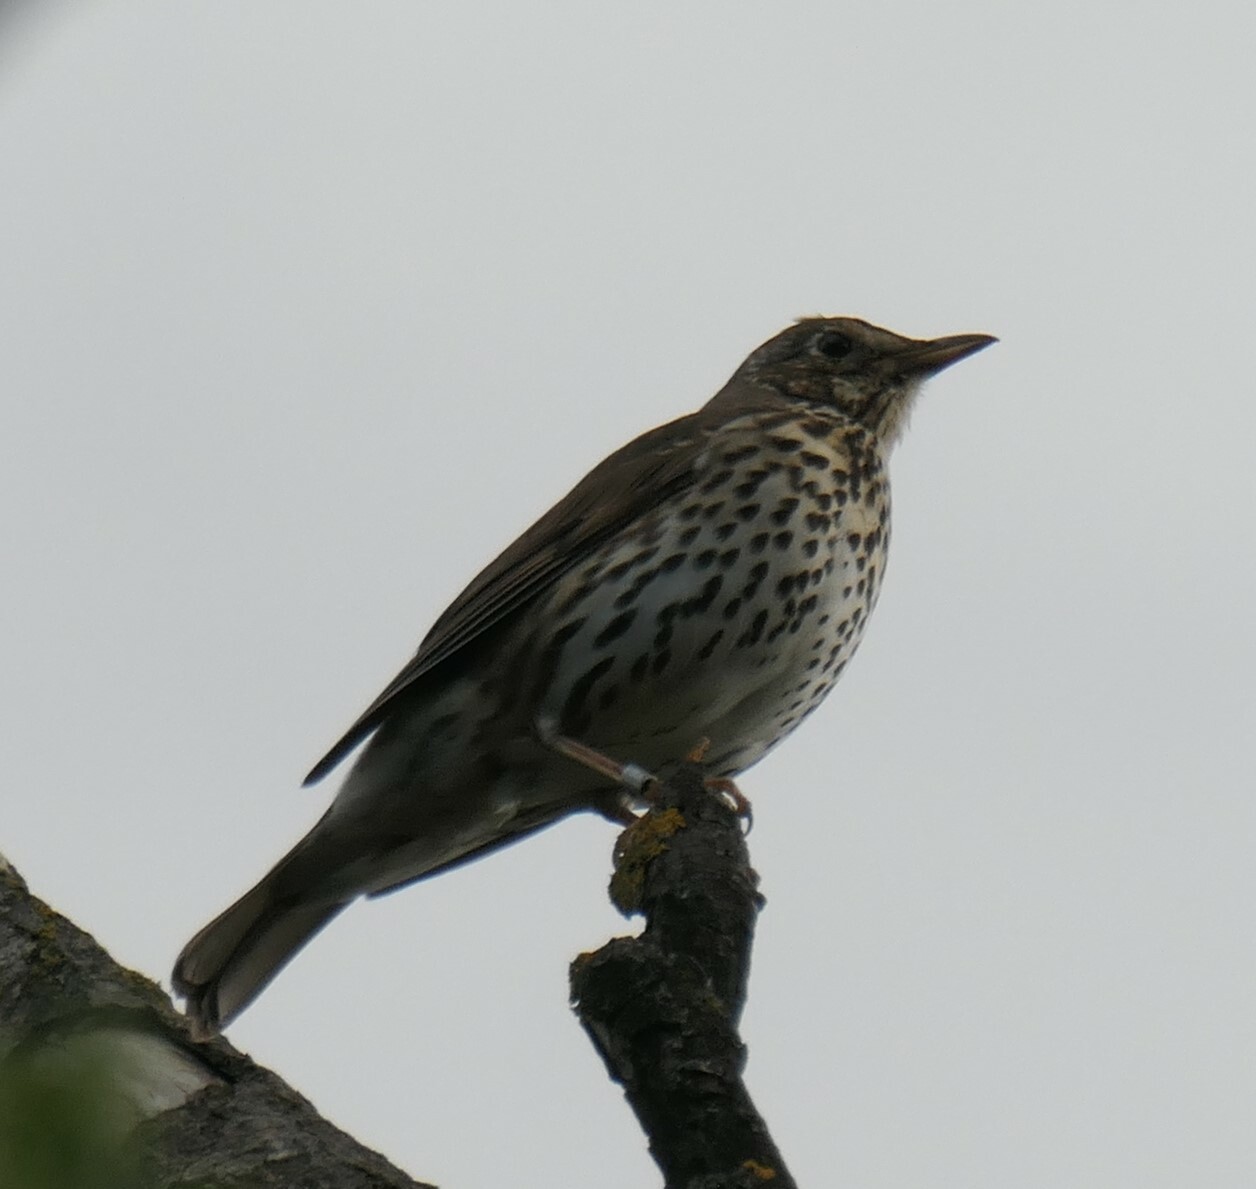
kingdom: Animalia
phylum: Chordata
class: Aves
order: Passeriformes
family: Turdidae
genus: Turdus
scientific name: Turdus philomelos
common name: Song thrush
